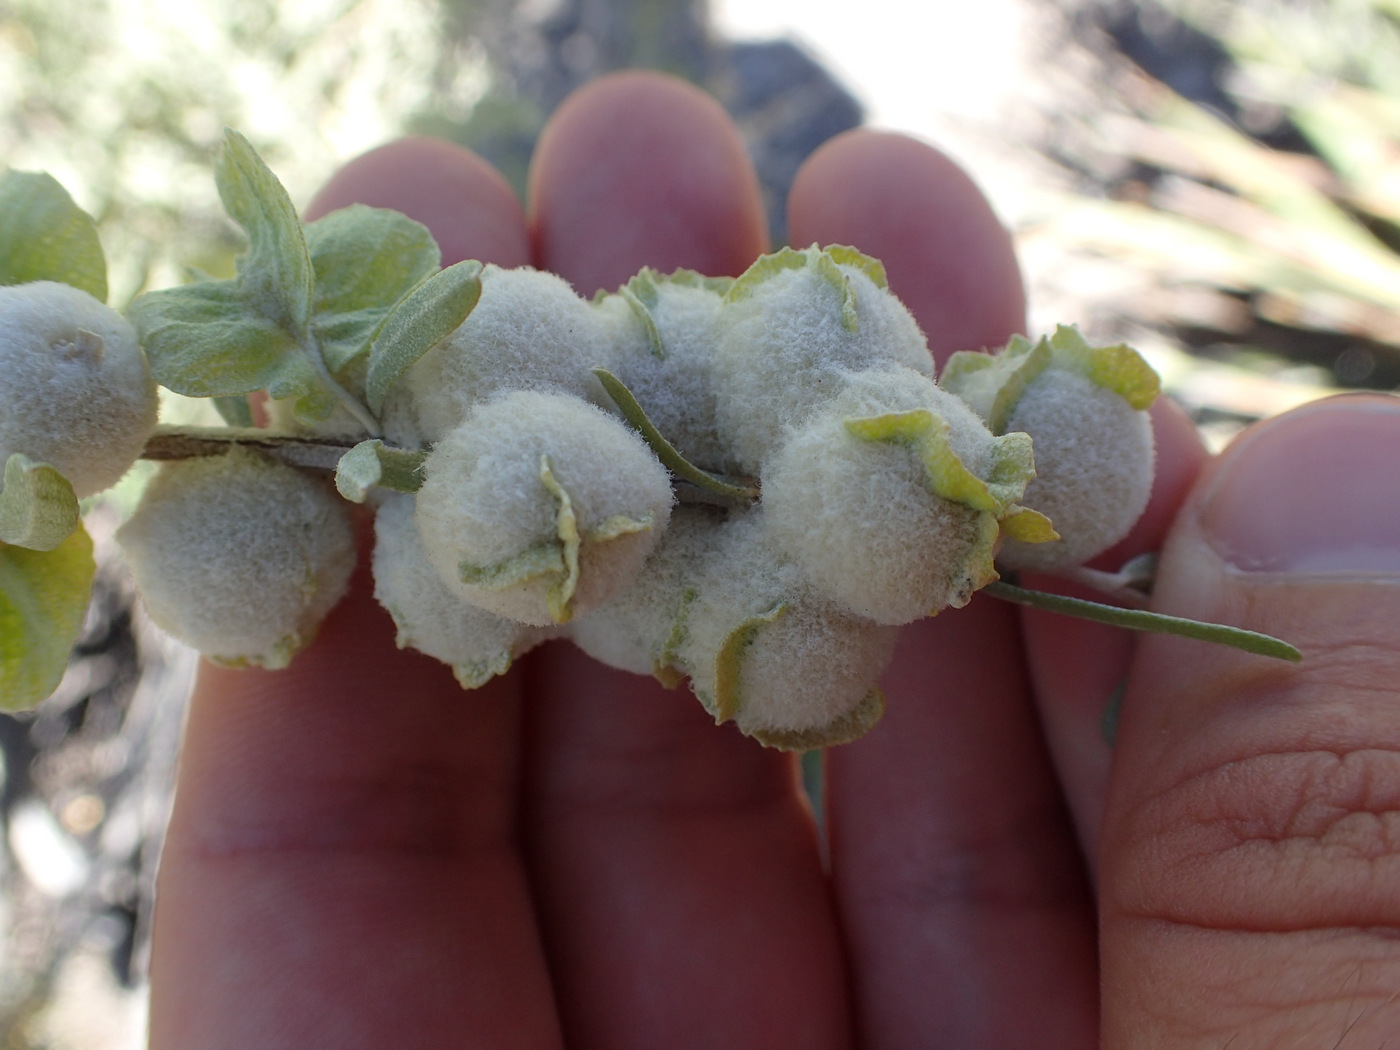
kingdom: Plantae
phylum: Tracheophyta
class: Magnoliopsida
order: Caryophyllales
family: Amaranthaceae
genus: Atriplex
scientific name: Atriplex canescens
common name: Four-wing saltbush
